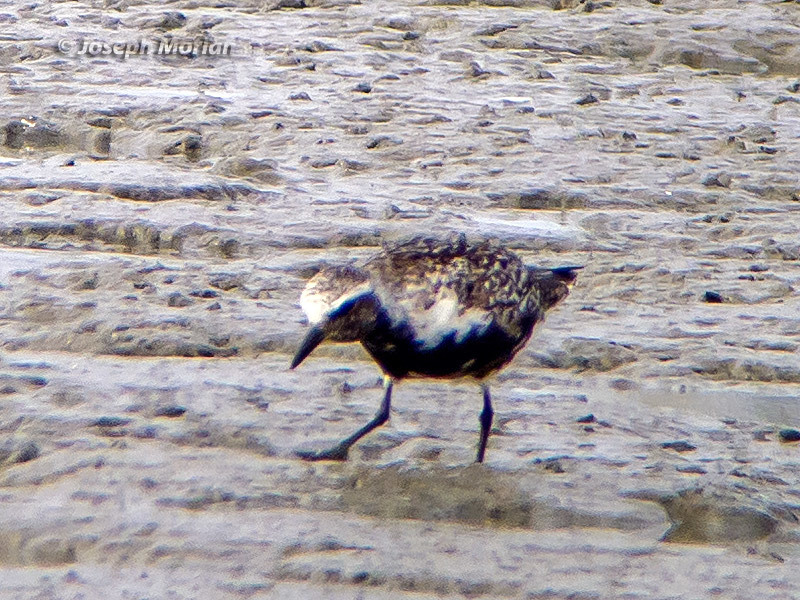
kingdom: Animalia
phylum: Chordata
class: Aves
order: Charadriiformes
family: Charadriidae
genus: Pluvialis
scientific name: Pluvialis squatarola
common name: Grey plover
